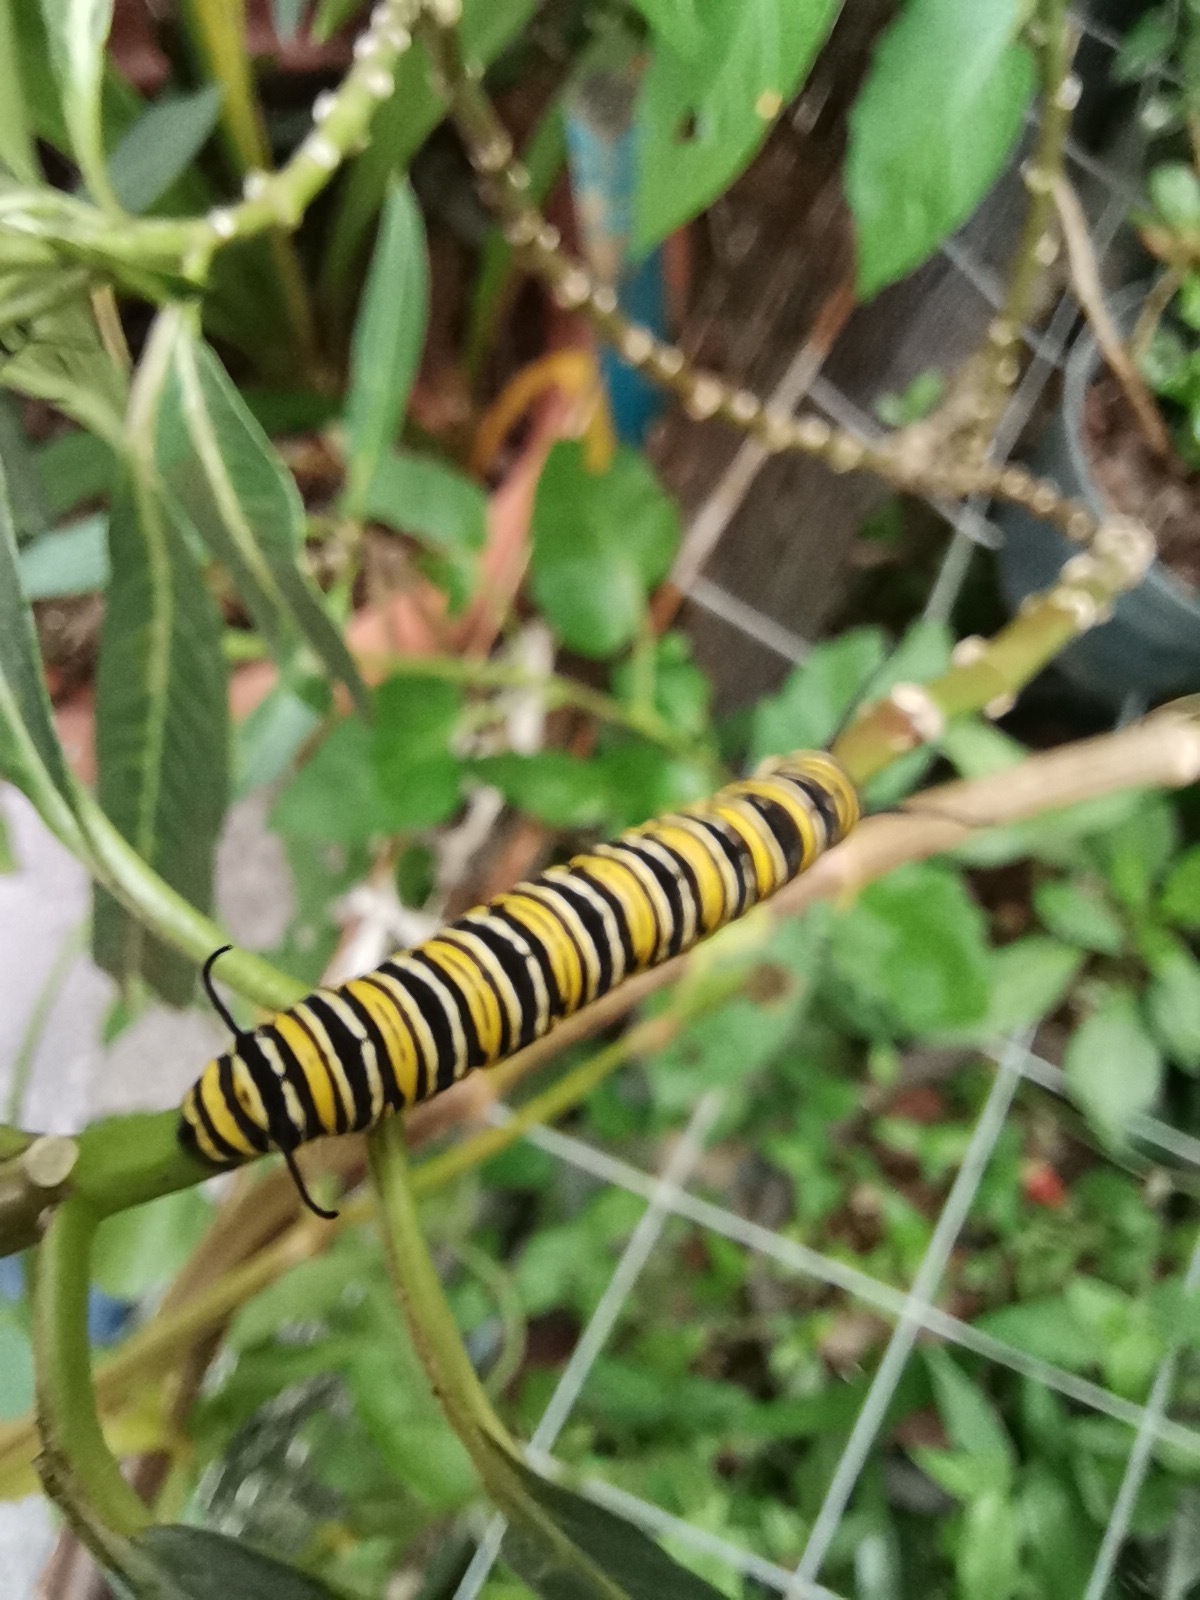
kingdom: Animalia
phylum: Arthropoda
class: Insecta
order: Lepidoptera
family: Nymphalidae
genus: Danaus
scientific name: Danaus plexippus
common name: Monarch
